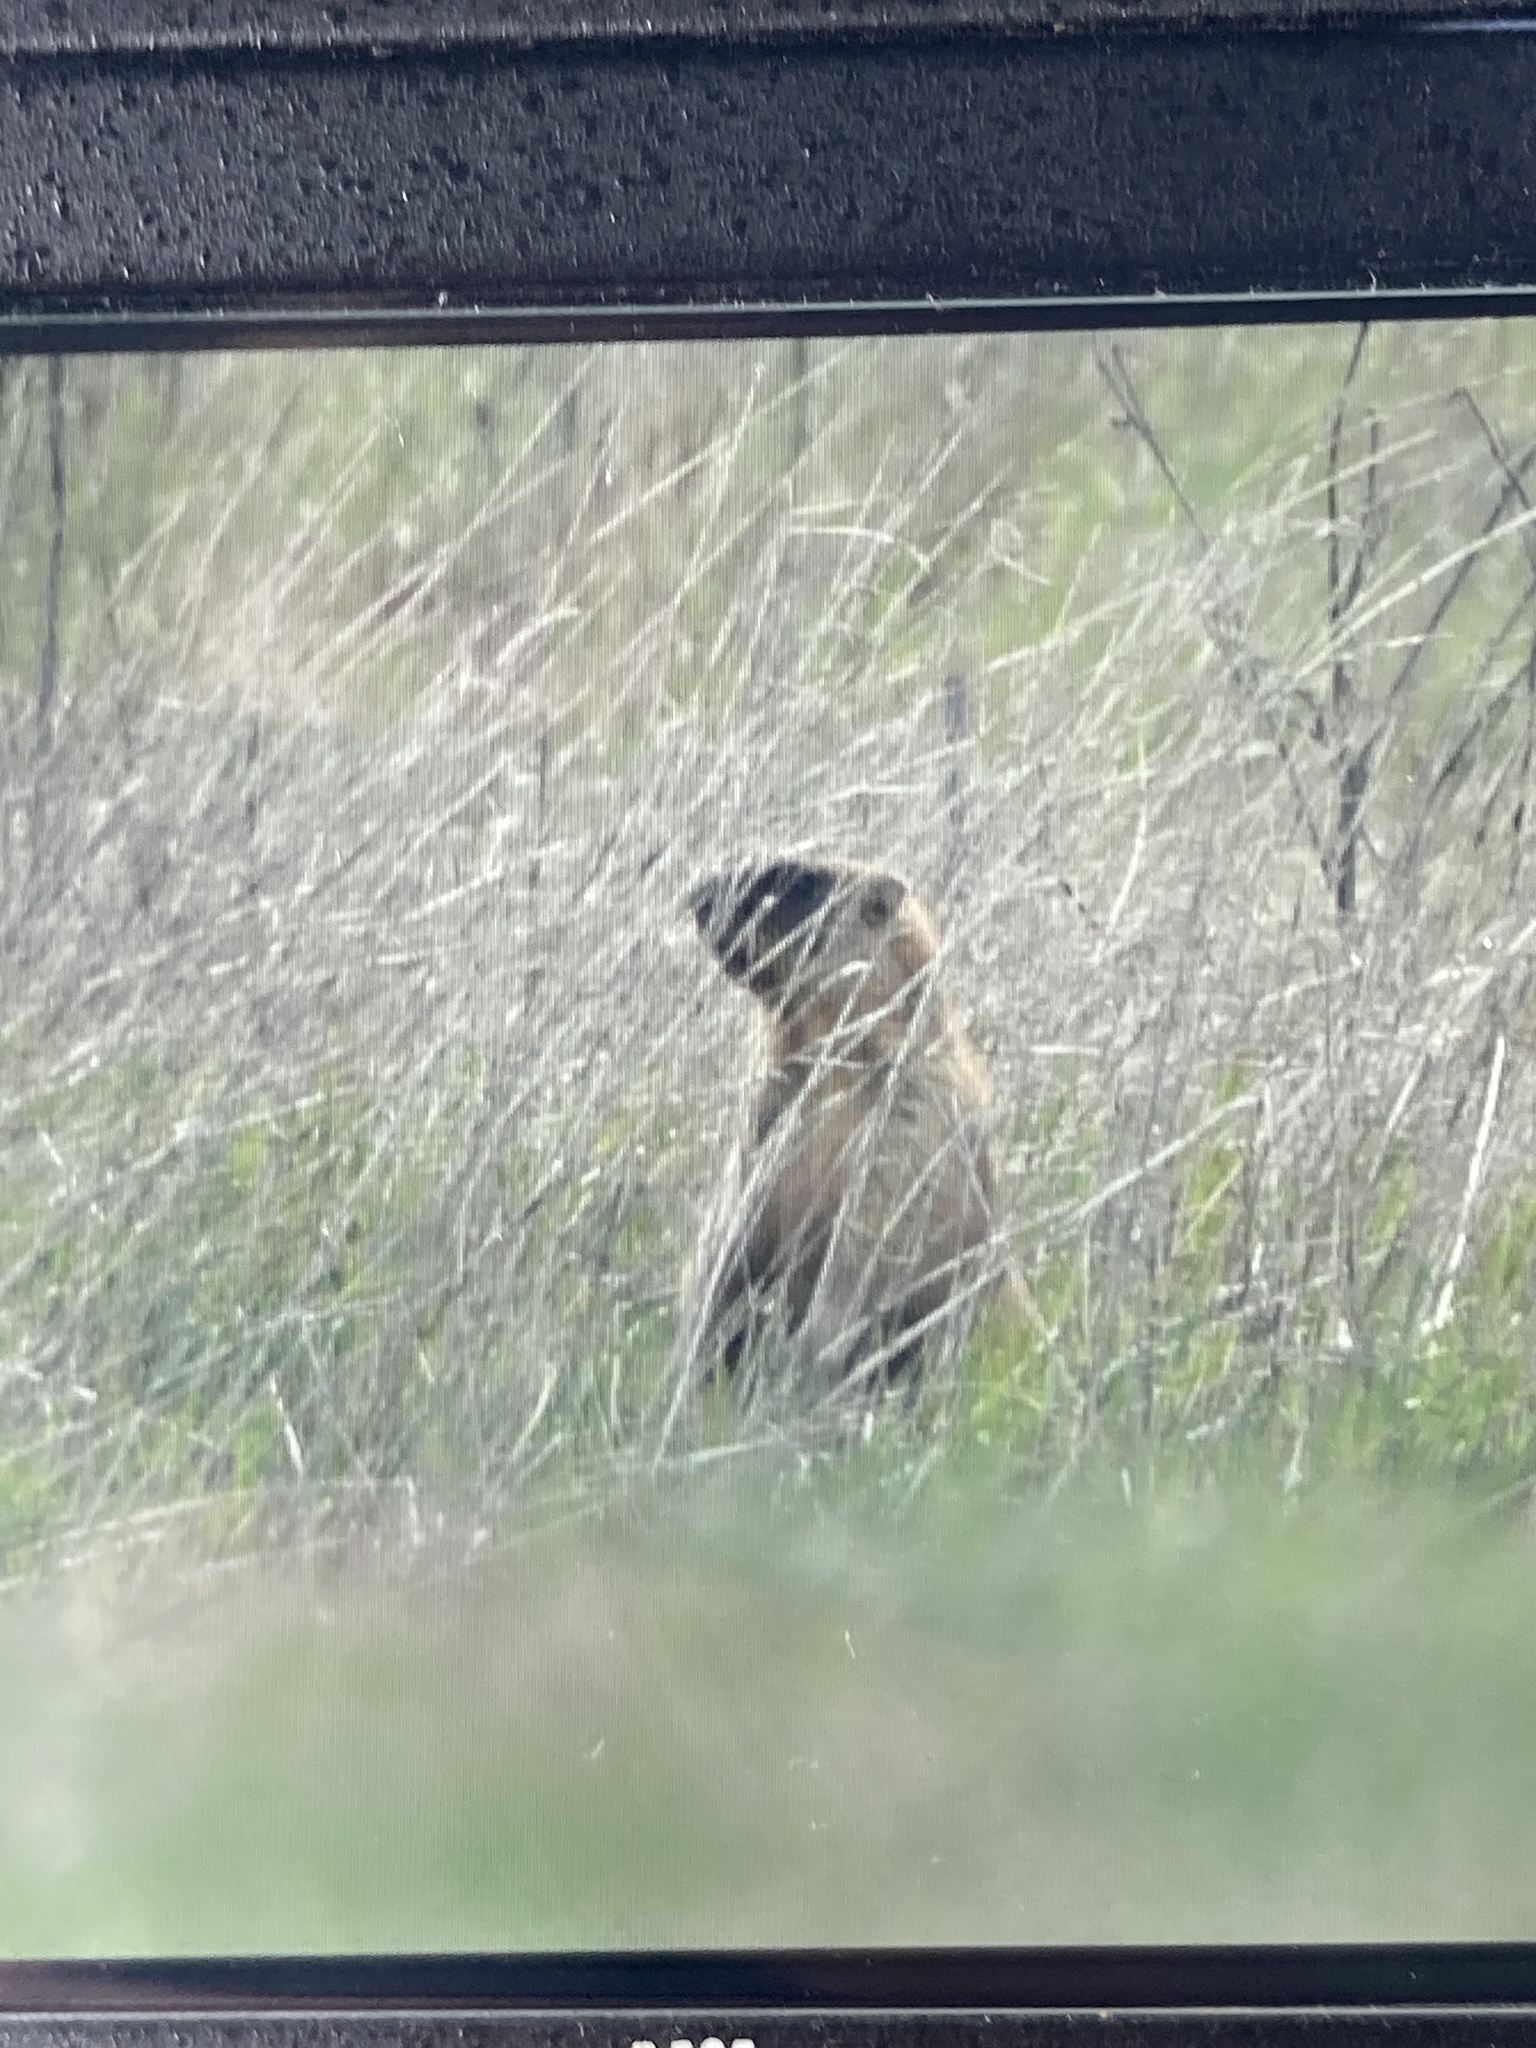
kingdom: Animalia
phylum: Chordata
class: Mammalia
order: Rodentia
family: Sciuridae
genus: Marmota
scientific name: Marmota bobak
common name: Bobak marmot
